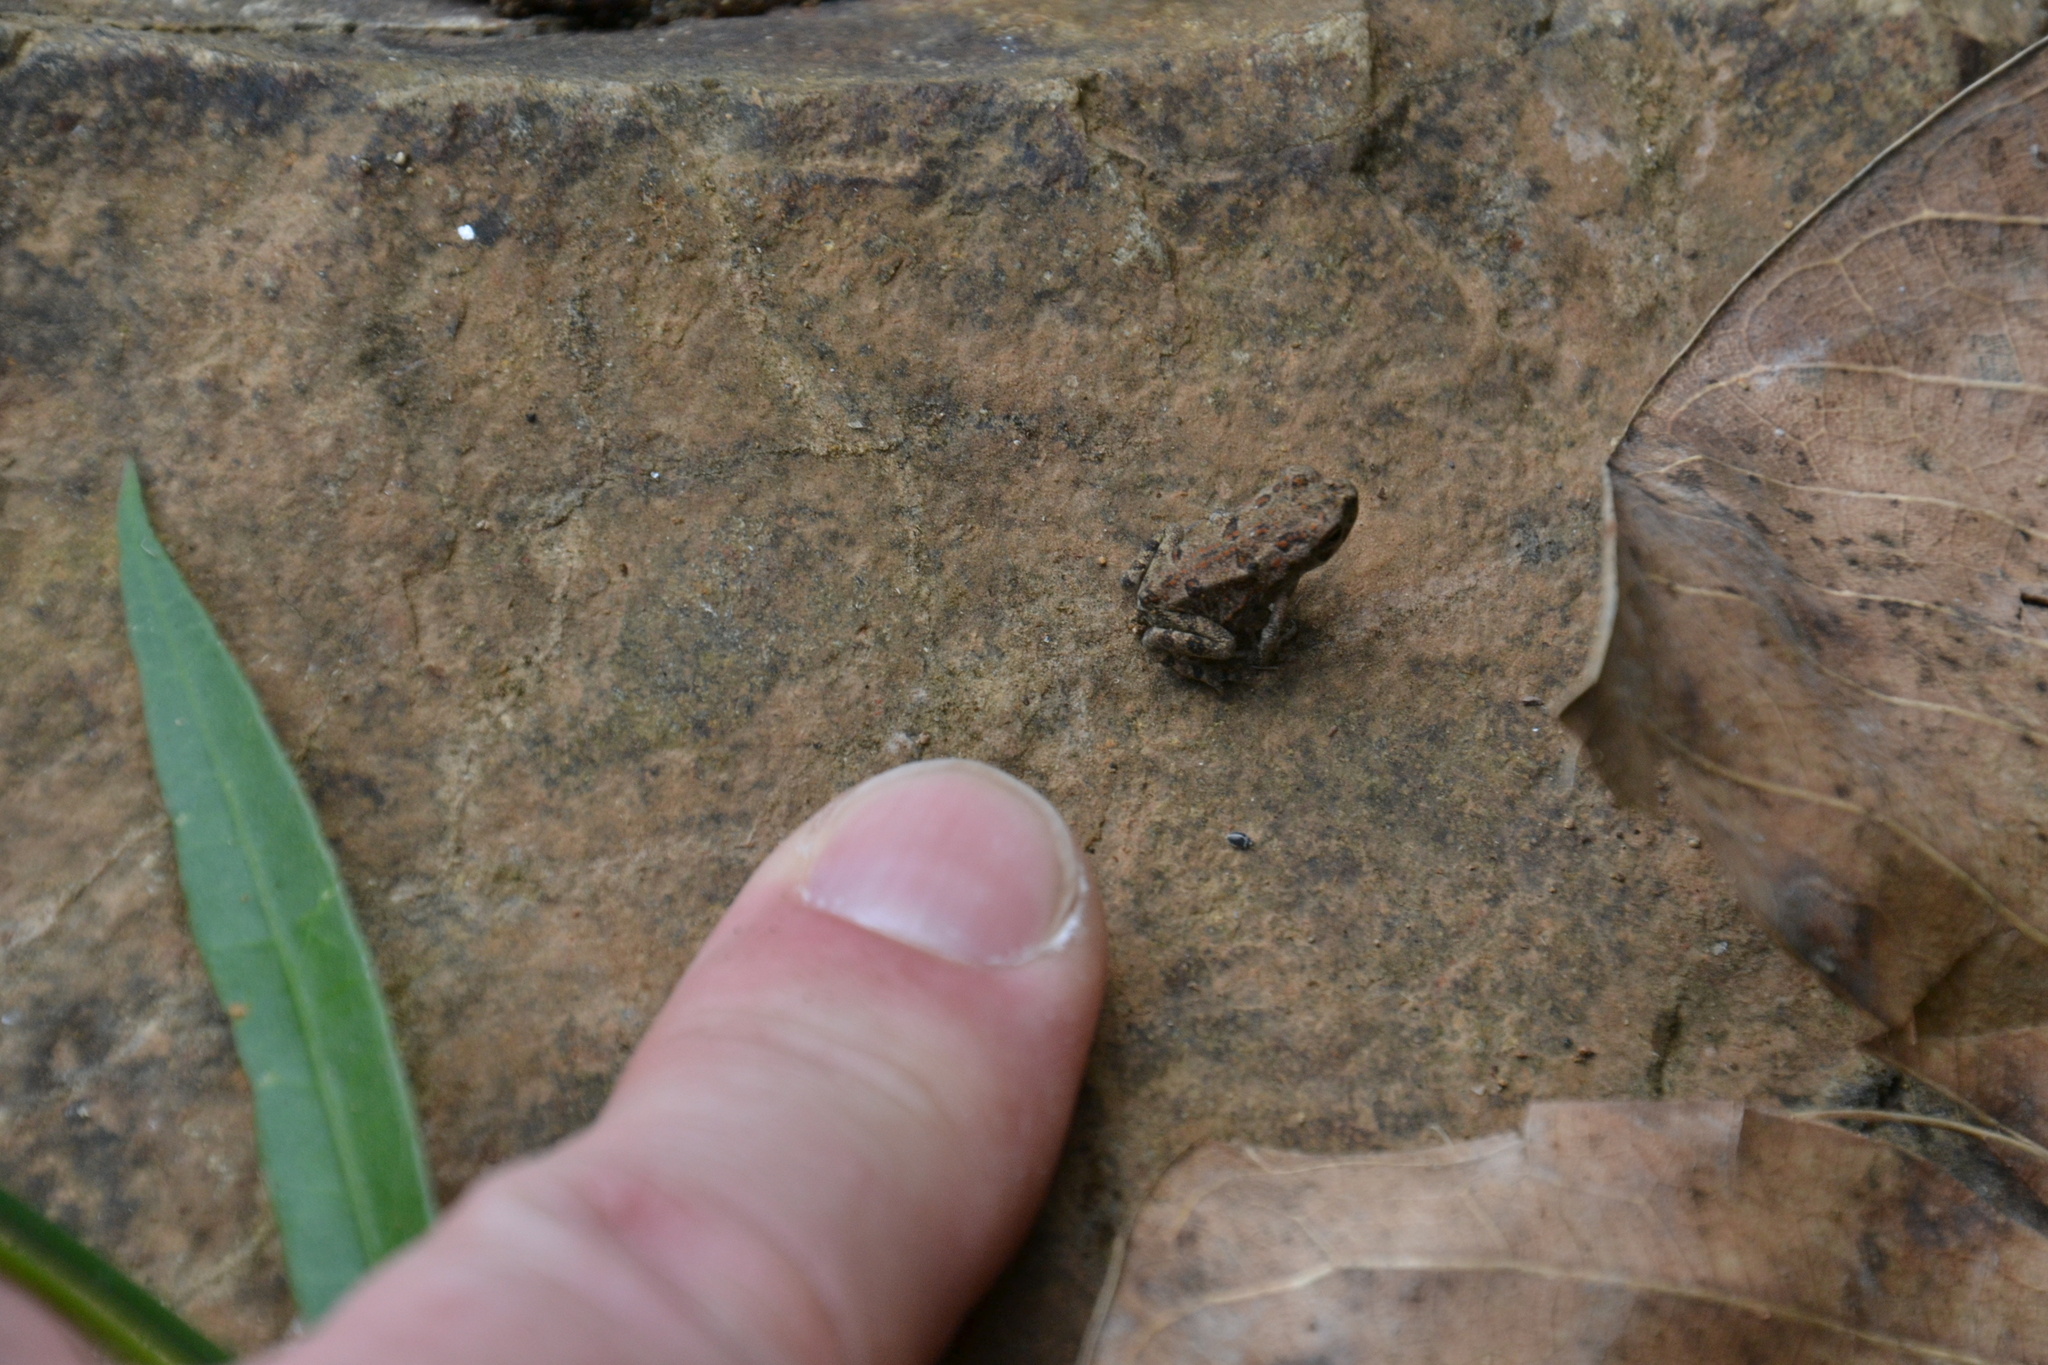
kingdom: Animalia
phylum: Chordata
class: Amphibia
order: Anura
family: Bufonidae
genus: Rhinella
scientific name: Rhinella horribilis
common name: Mesoamerican cane toad
